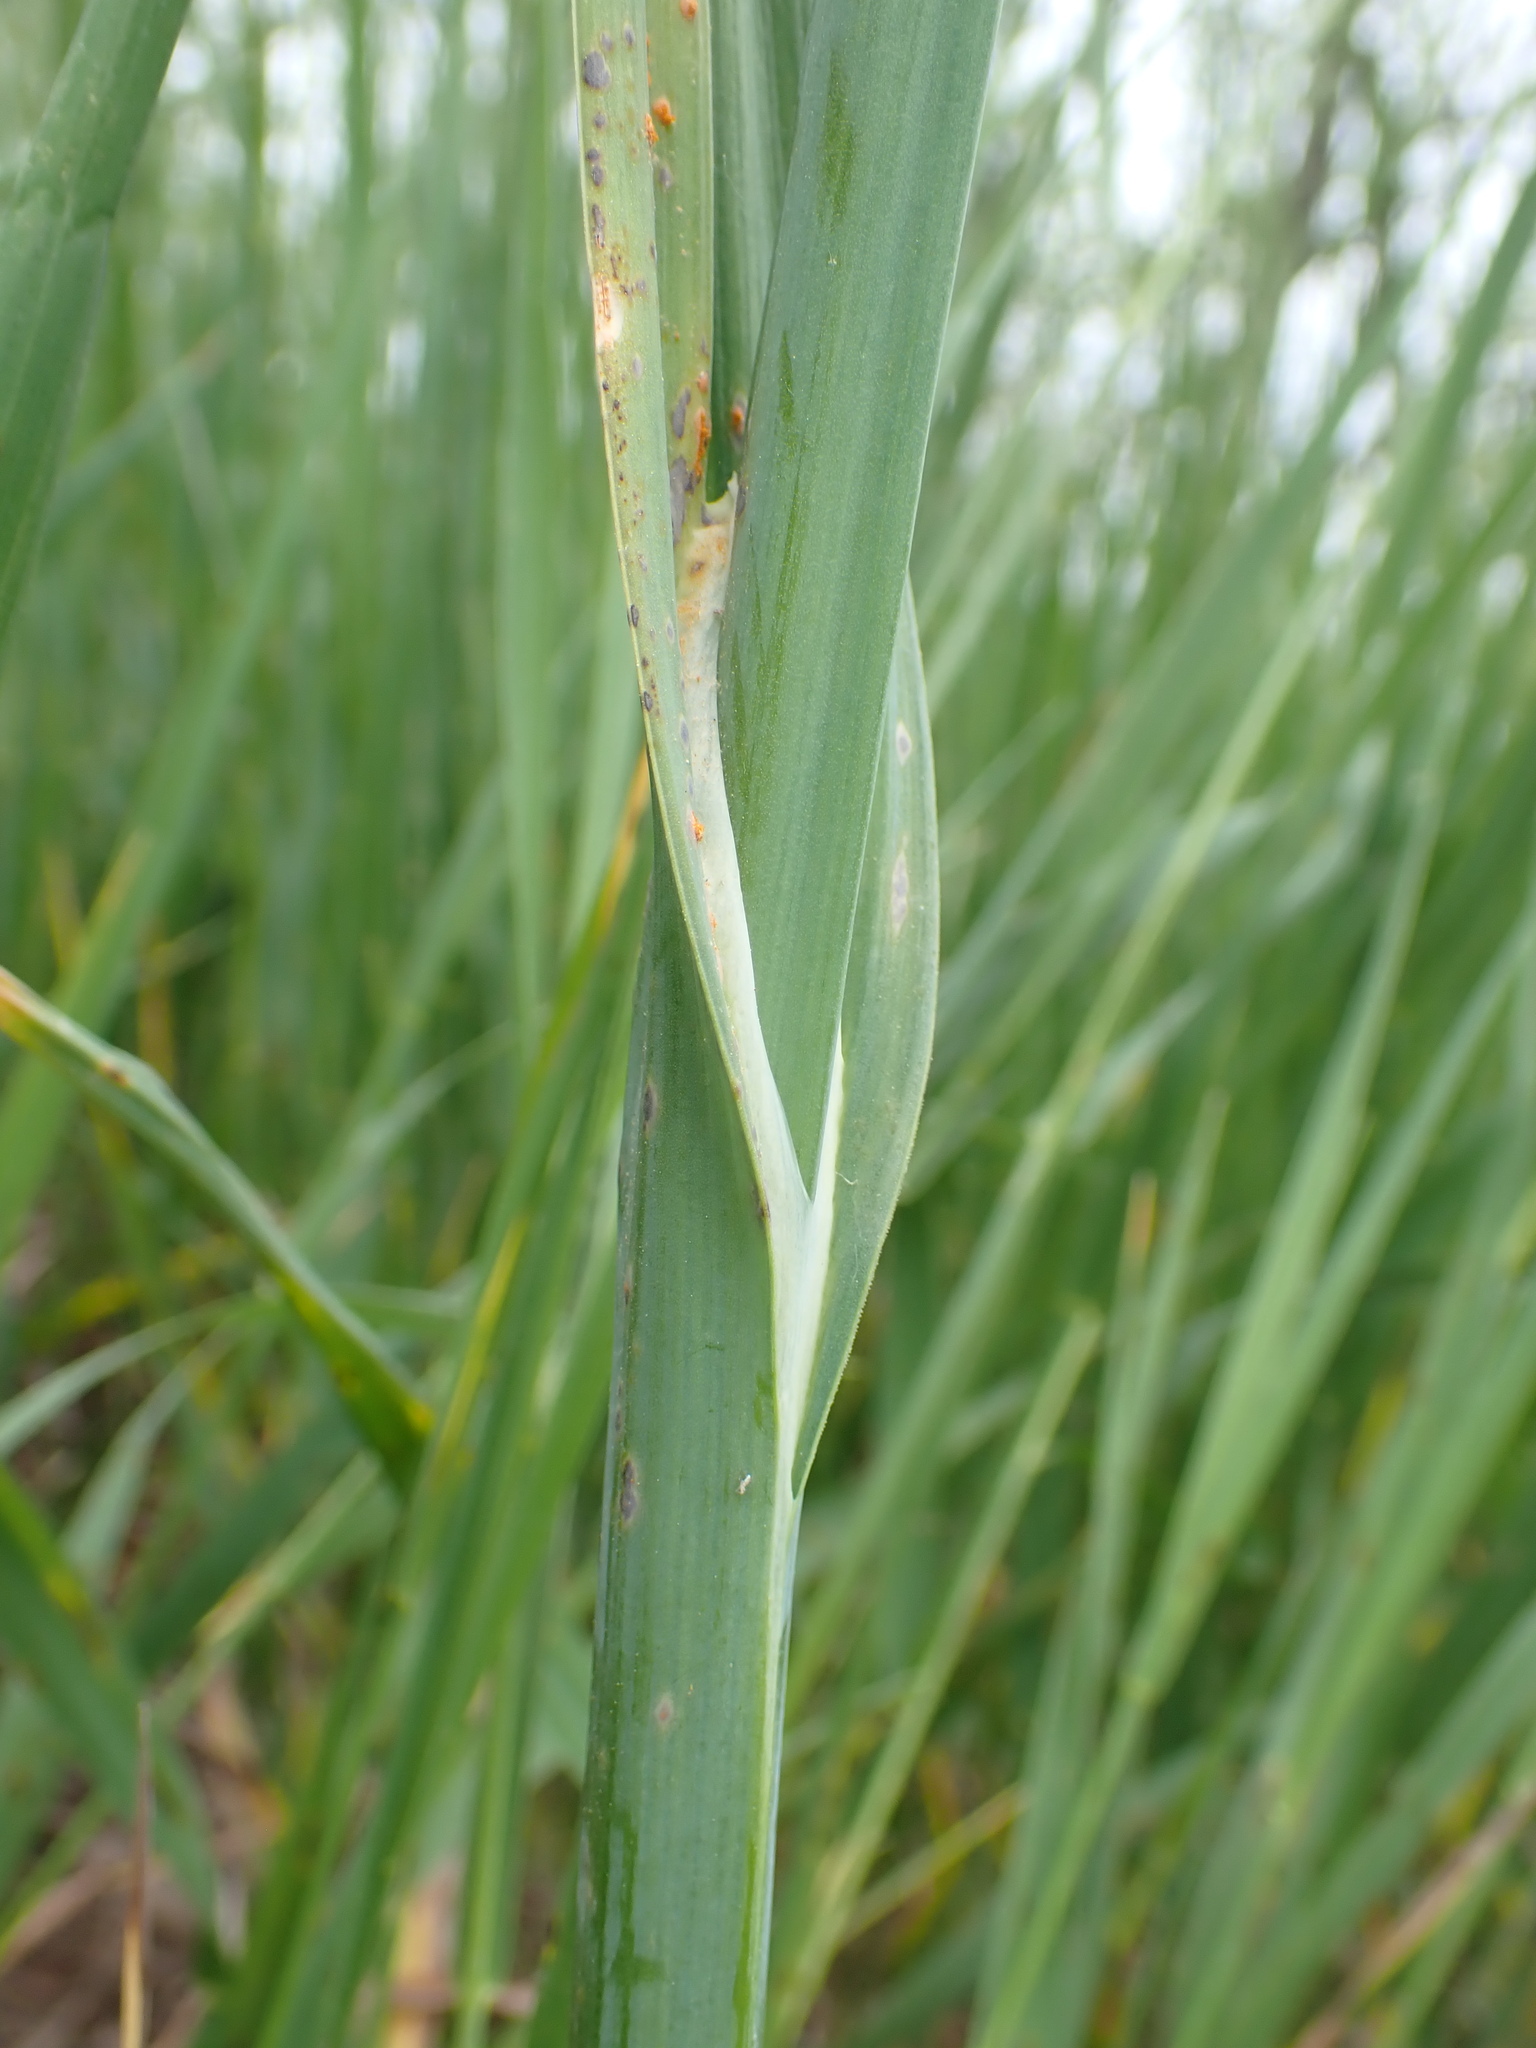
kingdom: Plantae
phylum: Tracheophyta
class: Liliopsida
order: Asparagales
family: Amaryllidaceae
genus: Allium
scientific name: Allium scorodoprasum
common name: Sand leek
